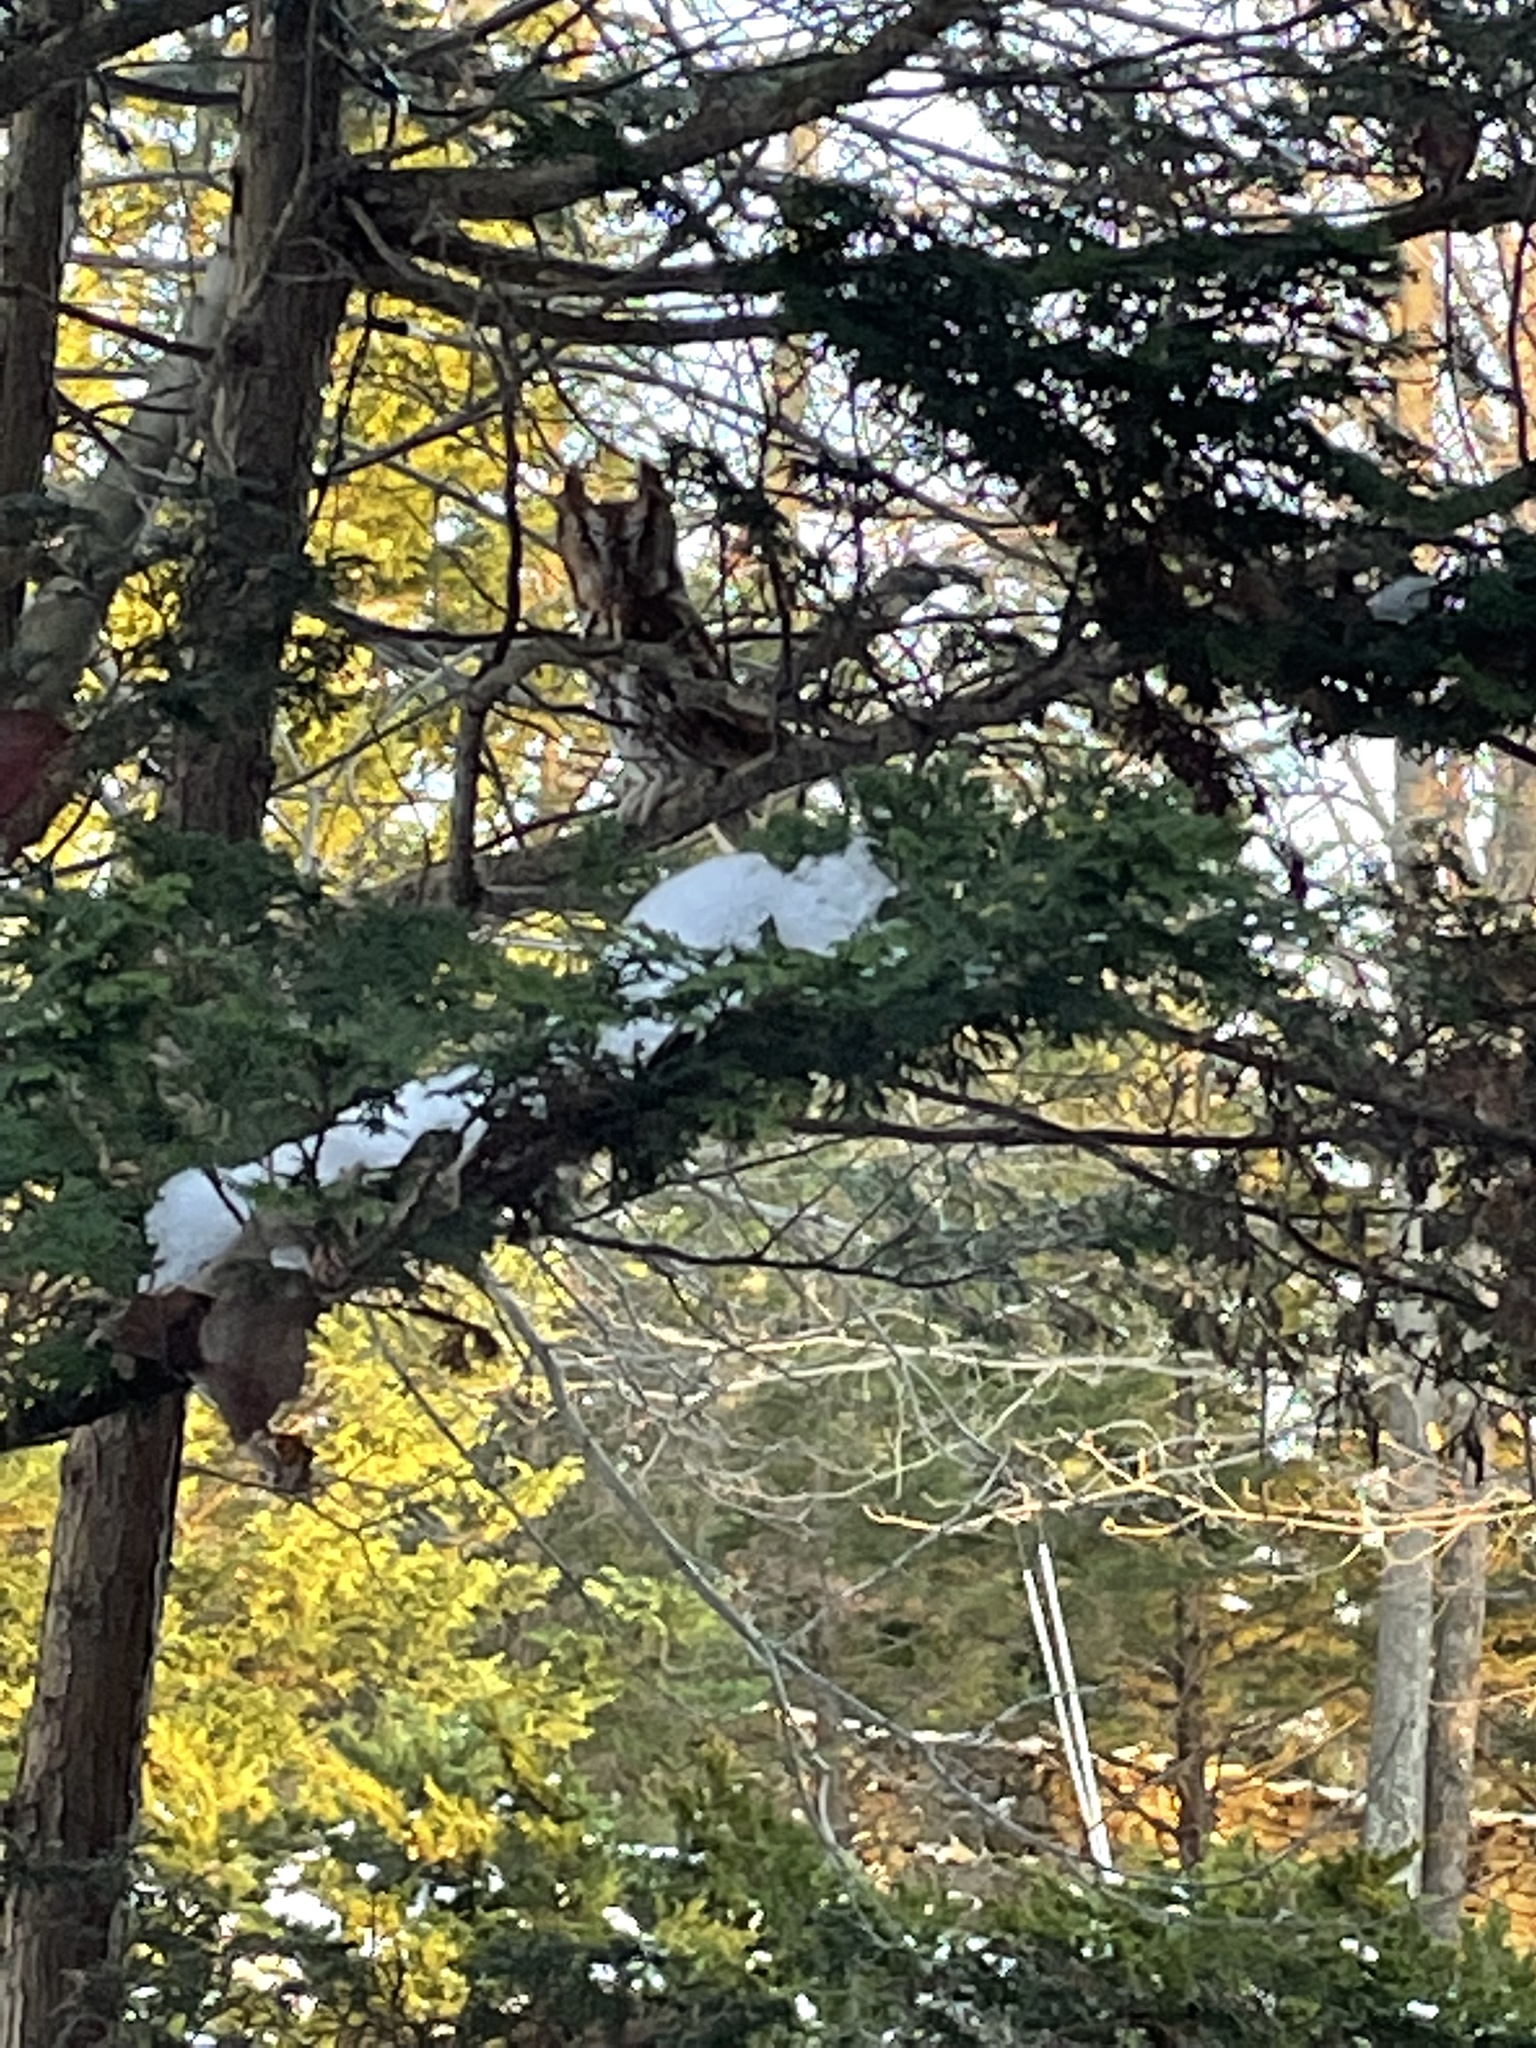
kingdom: Animalia
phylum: Chordata
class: Aves
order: Strigiformes
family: Strigidae
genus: Megascops
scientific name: Megascops asio
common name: Eastern screech-owl
